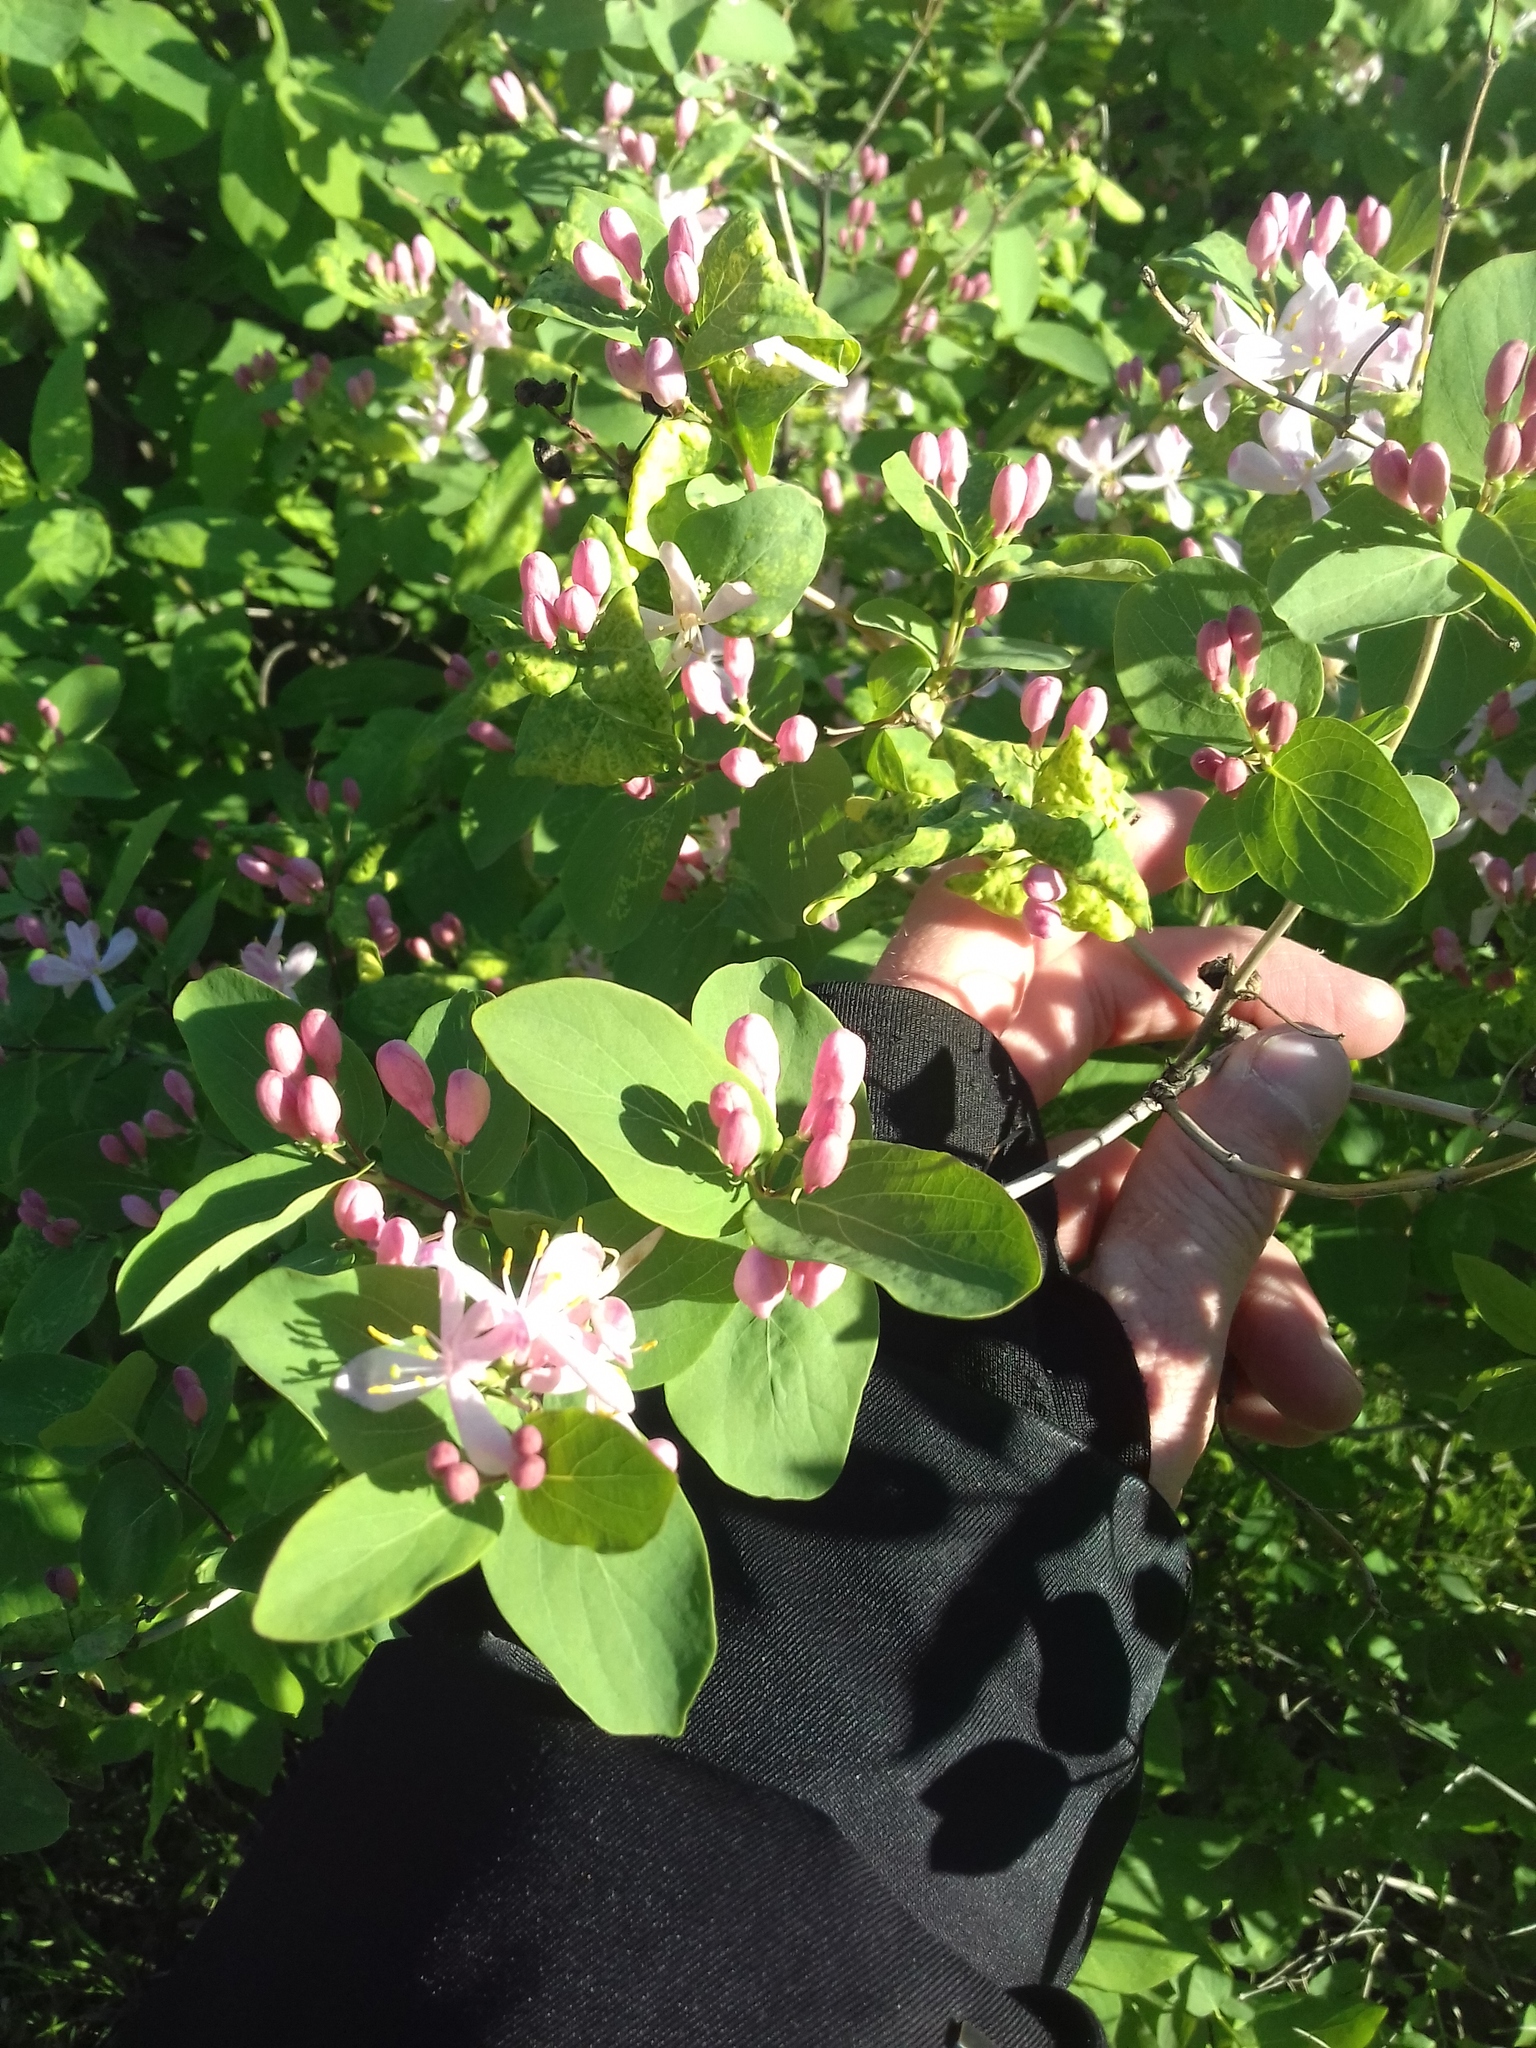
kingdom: Plantae
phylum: Tracheophyta
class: Magnoliopsida
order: Dipsacales
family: Caprifoliaceae
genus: Lonicera
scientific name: Lonicera tatarica
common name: Tatarian honeysuckle
